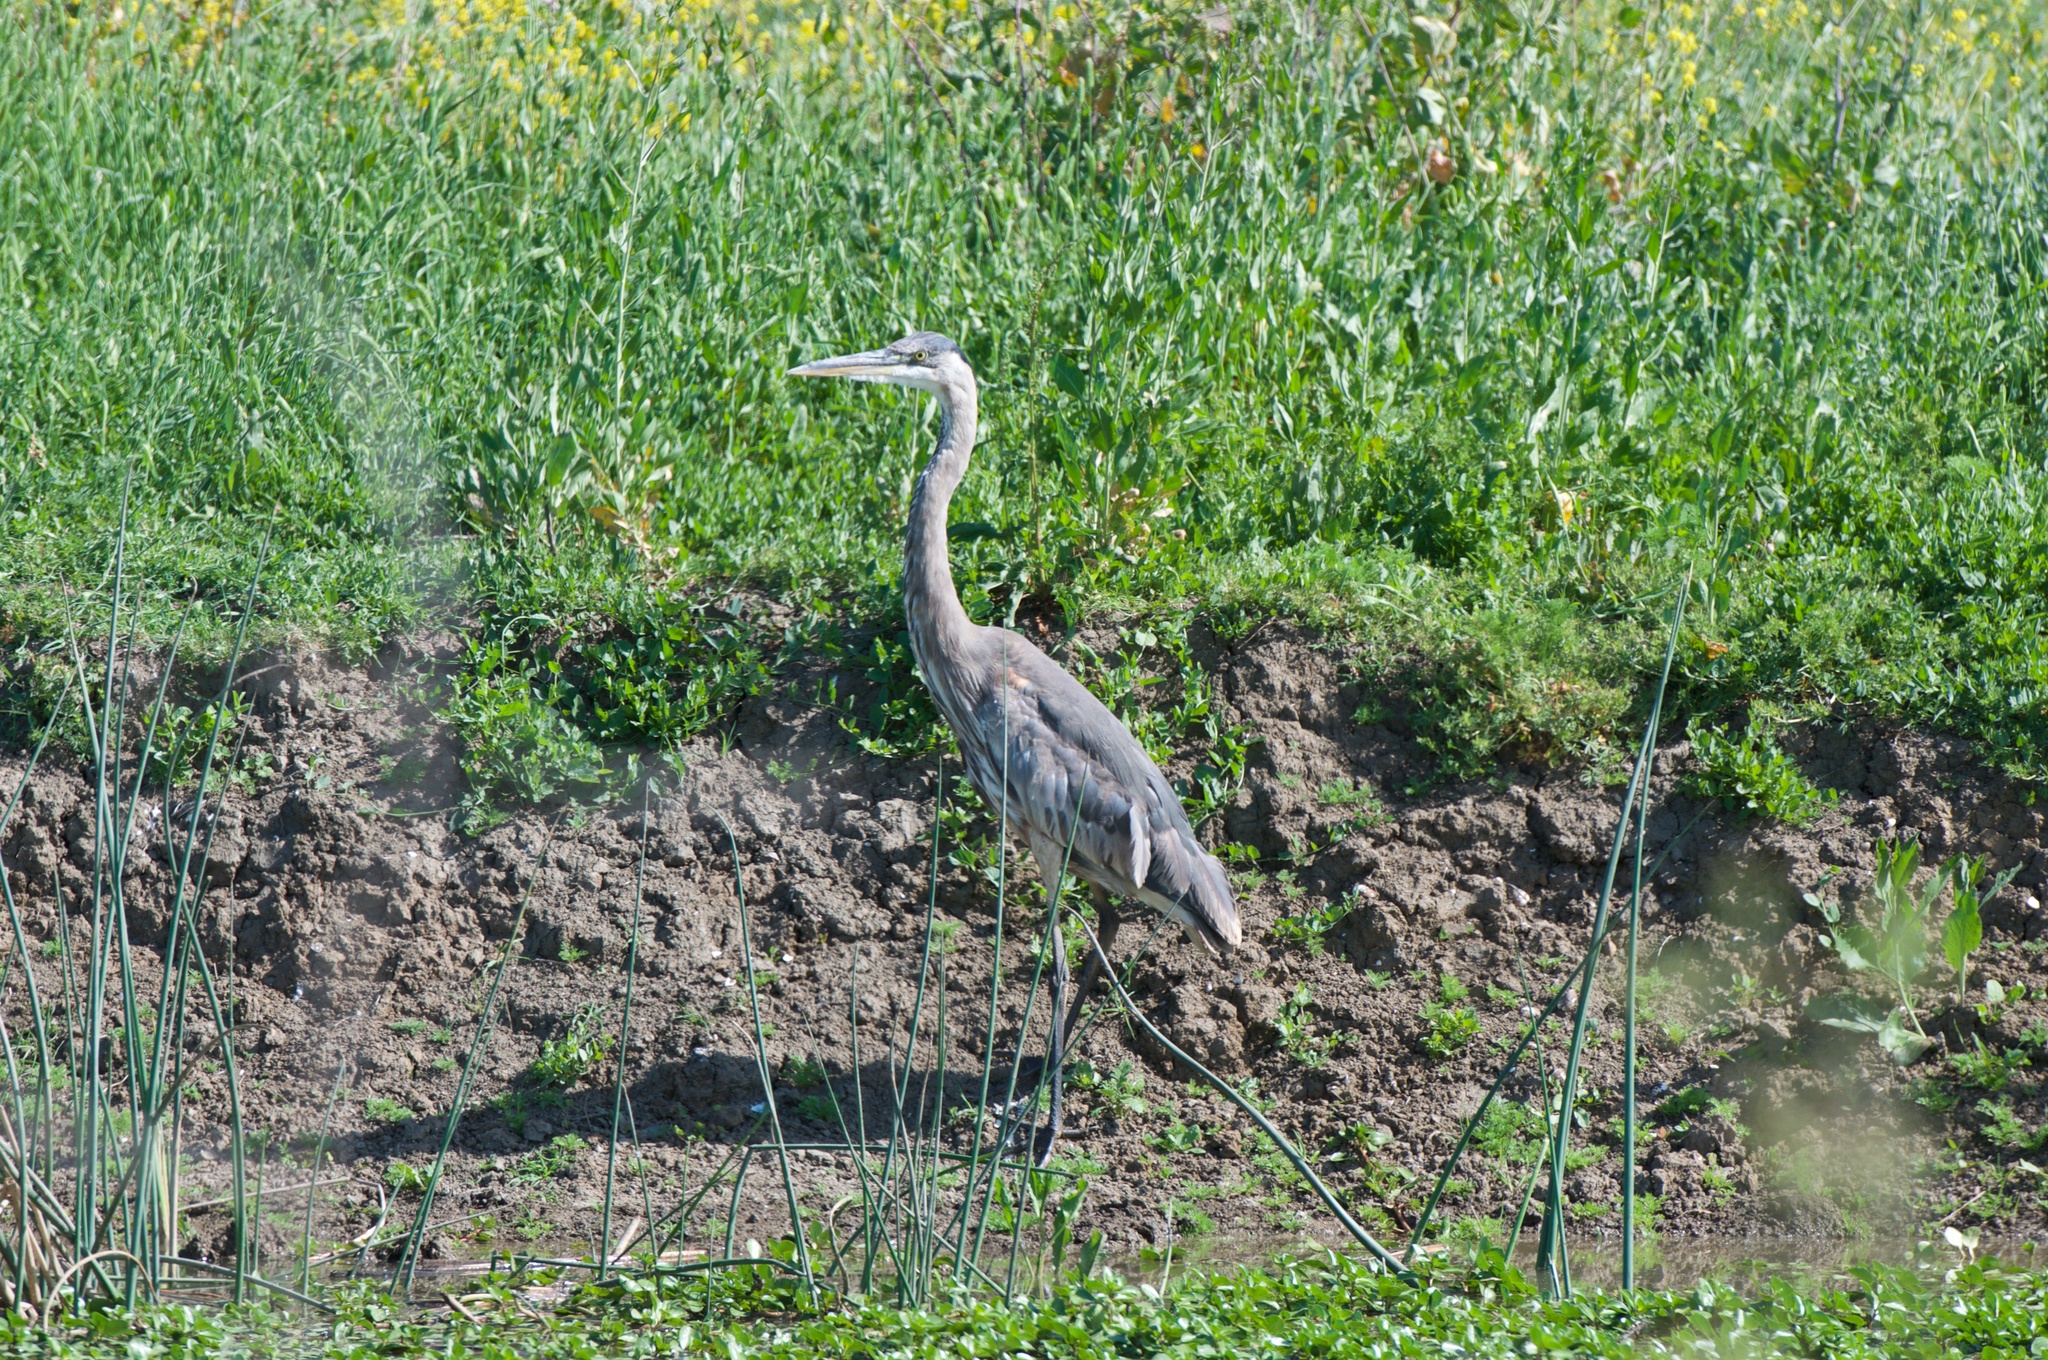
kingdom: Animalia
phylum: Chordata
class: Aves
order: Pelecaniformes
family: Ardeidae
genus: Ardea
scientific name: Ardea herodias
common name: Great blue heron
